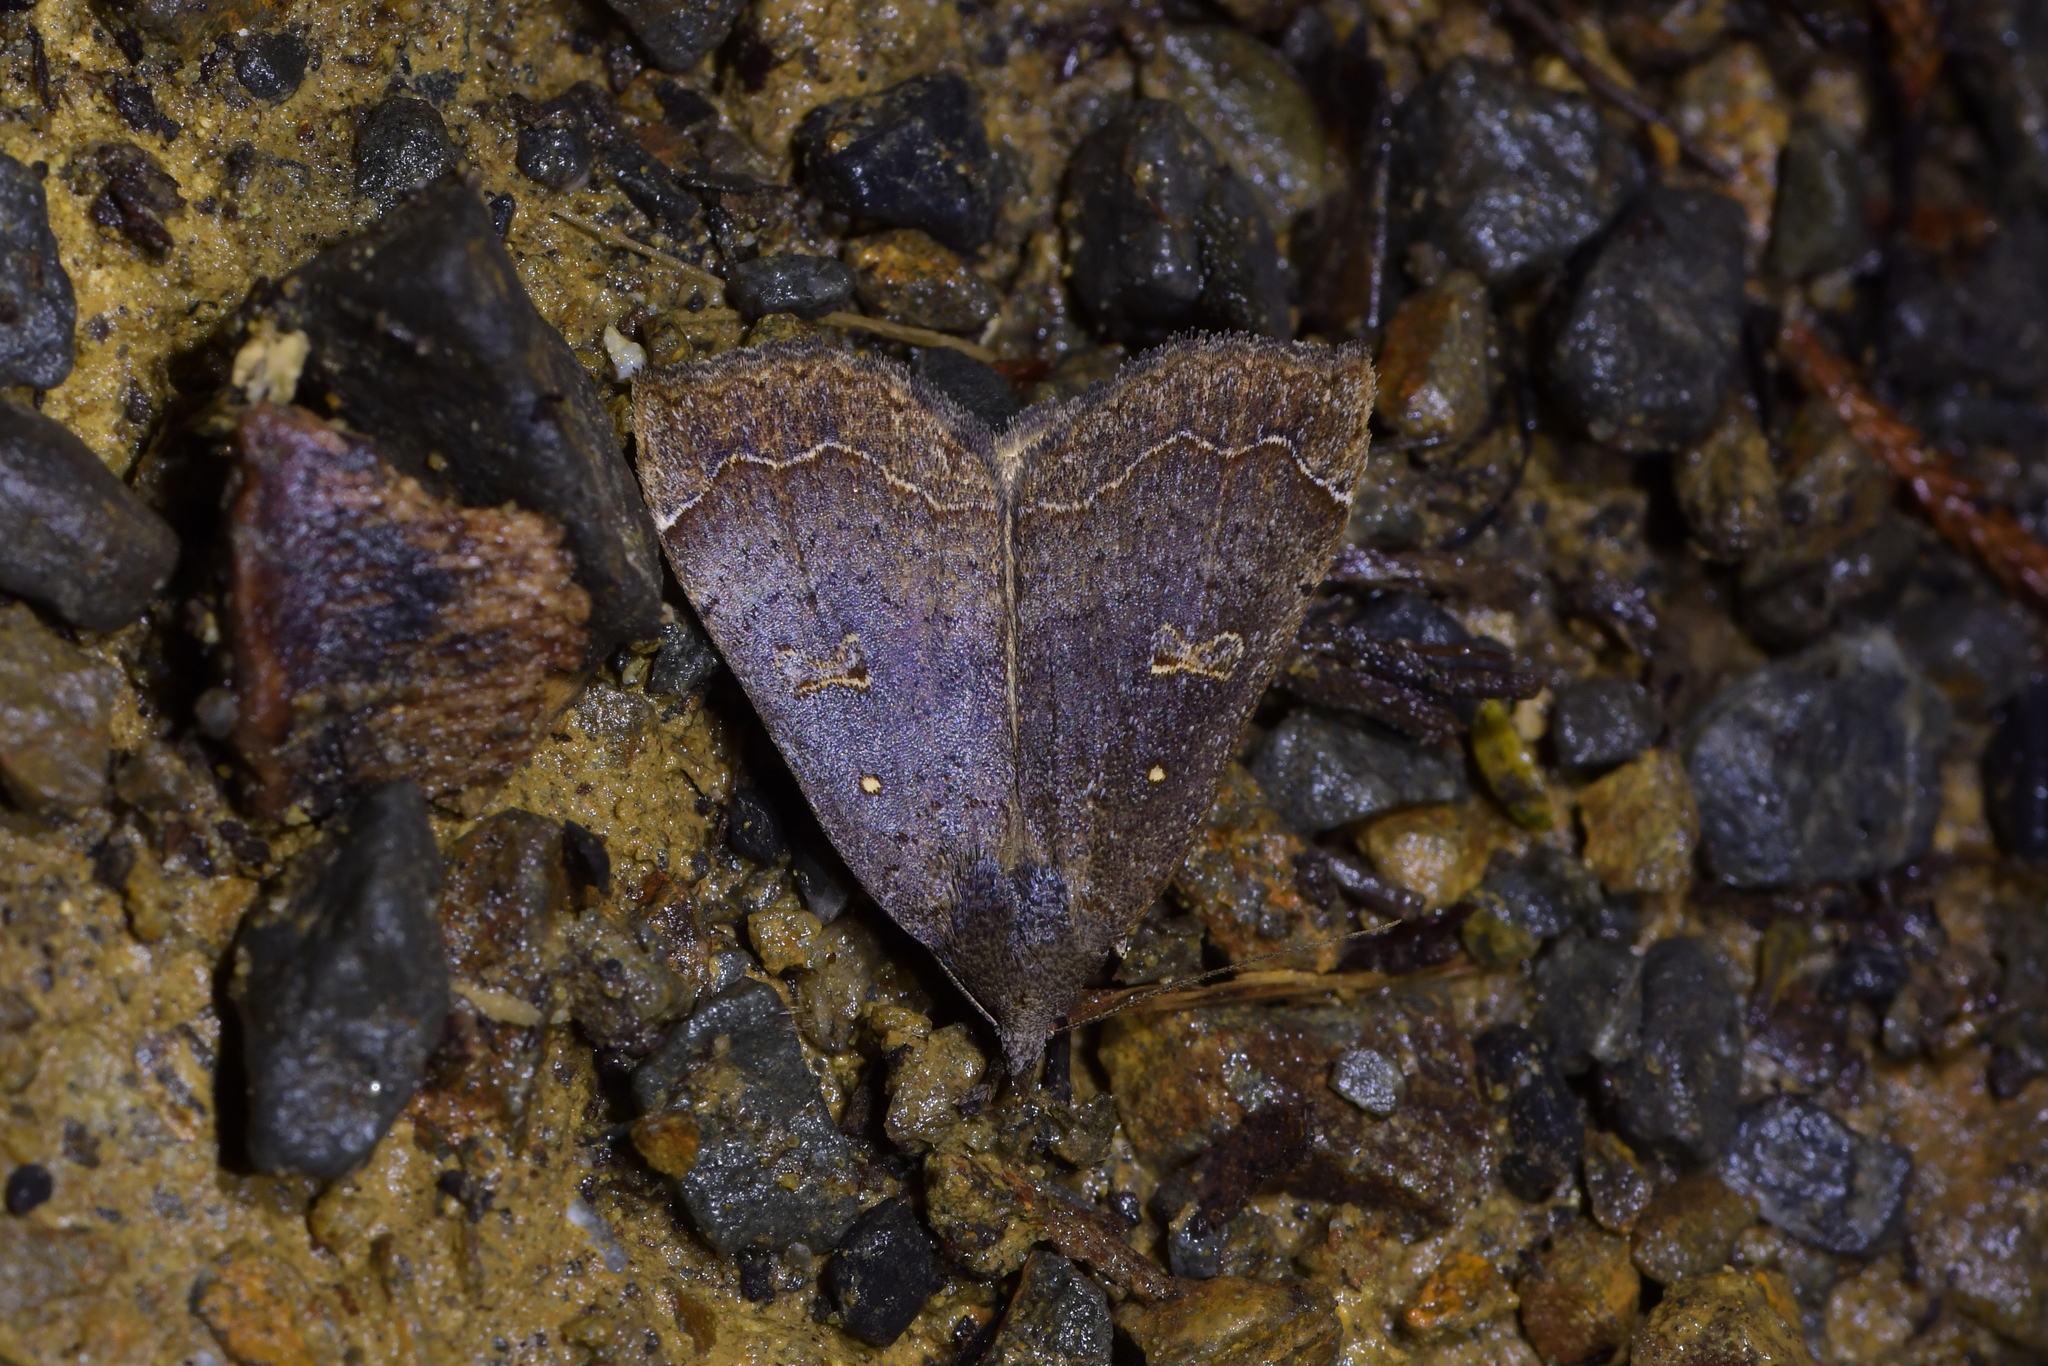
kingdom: Animalia
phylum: Arthropoda
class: Insecta
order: Lepidoptera
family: Erebidae
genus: Rhapsa
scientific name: Rhapsa scotosialis
